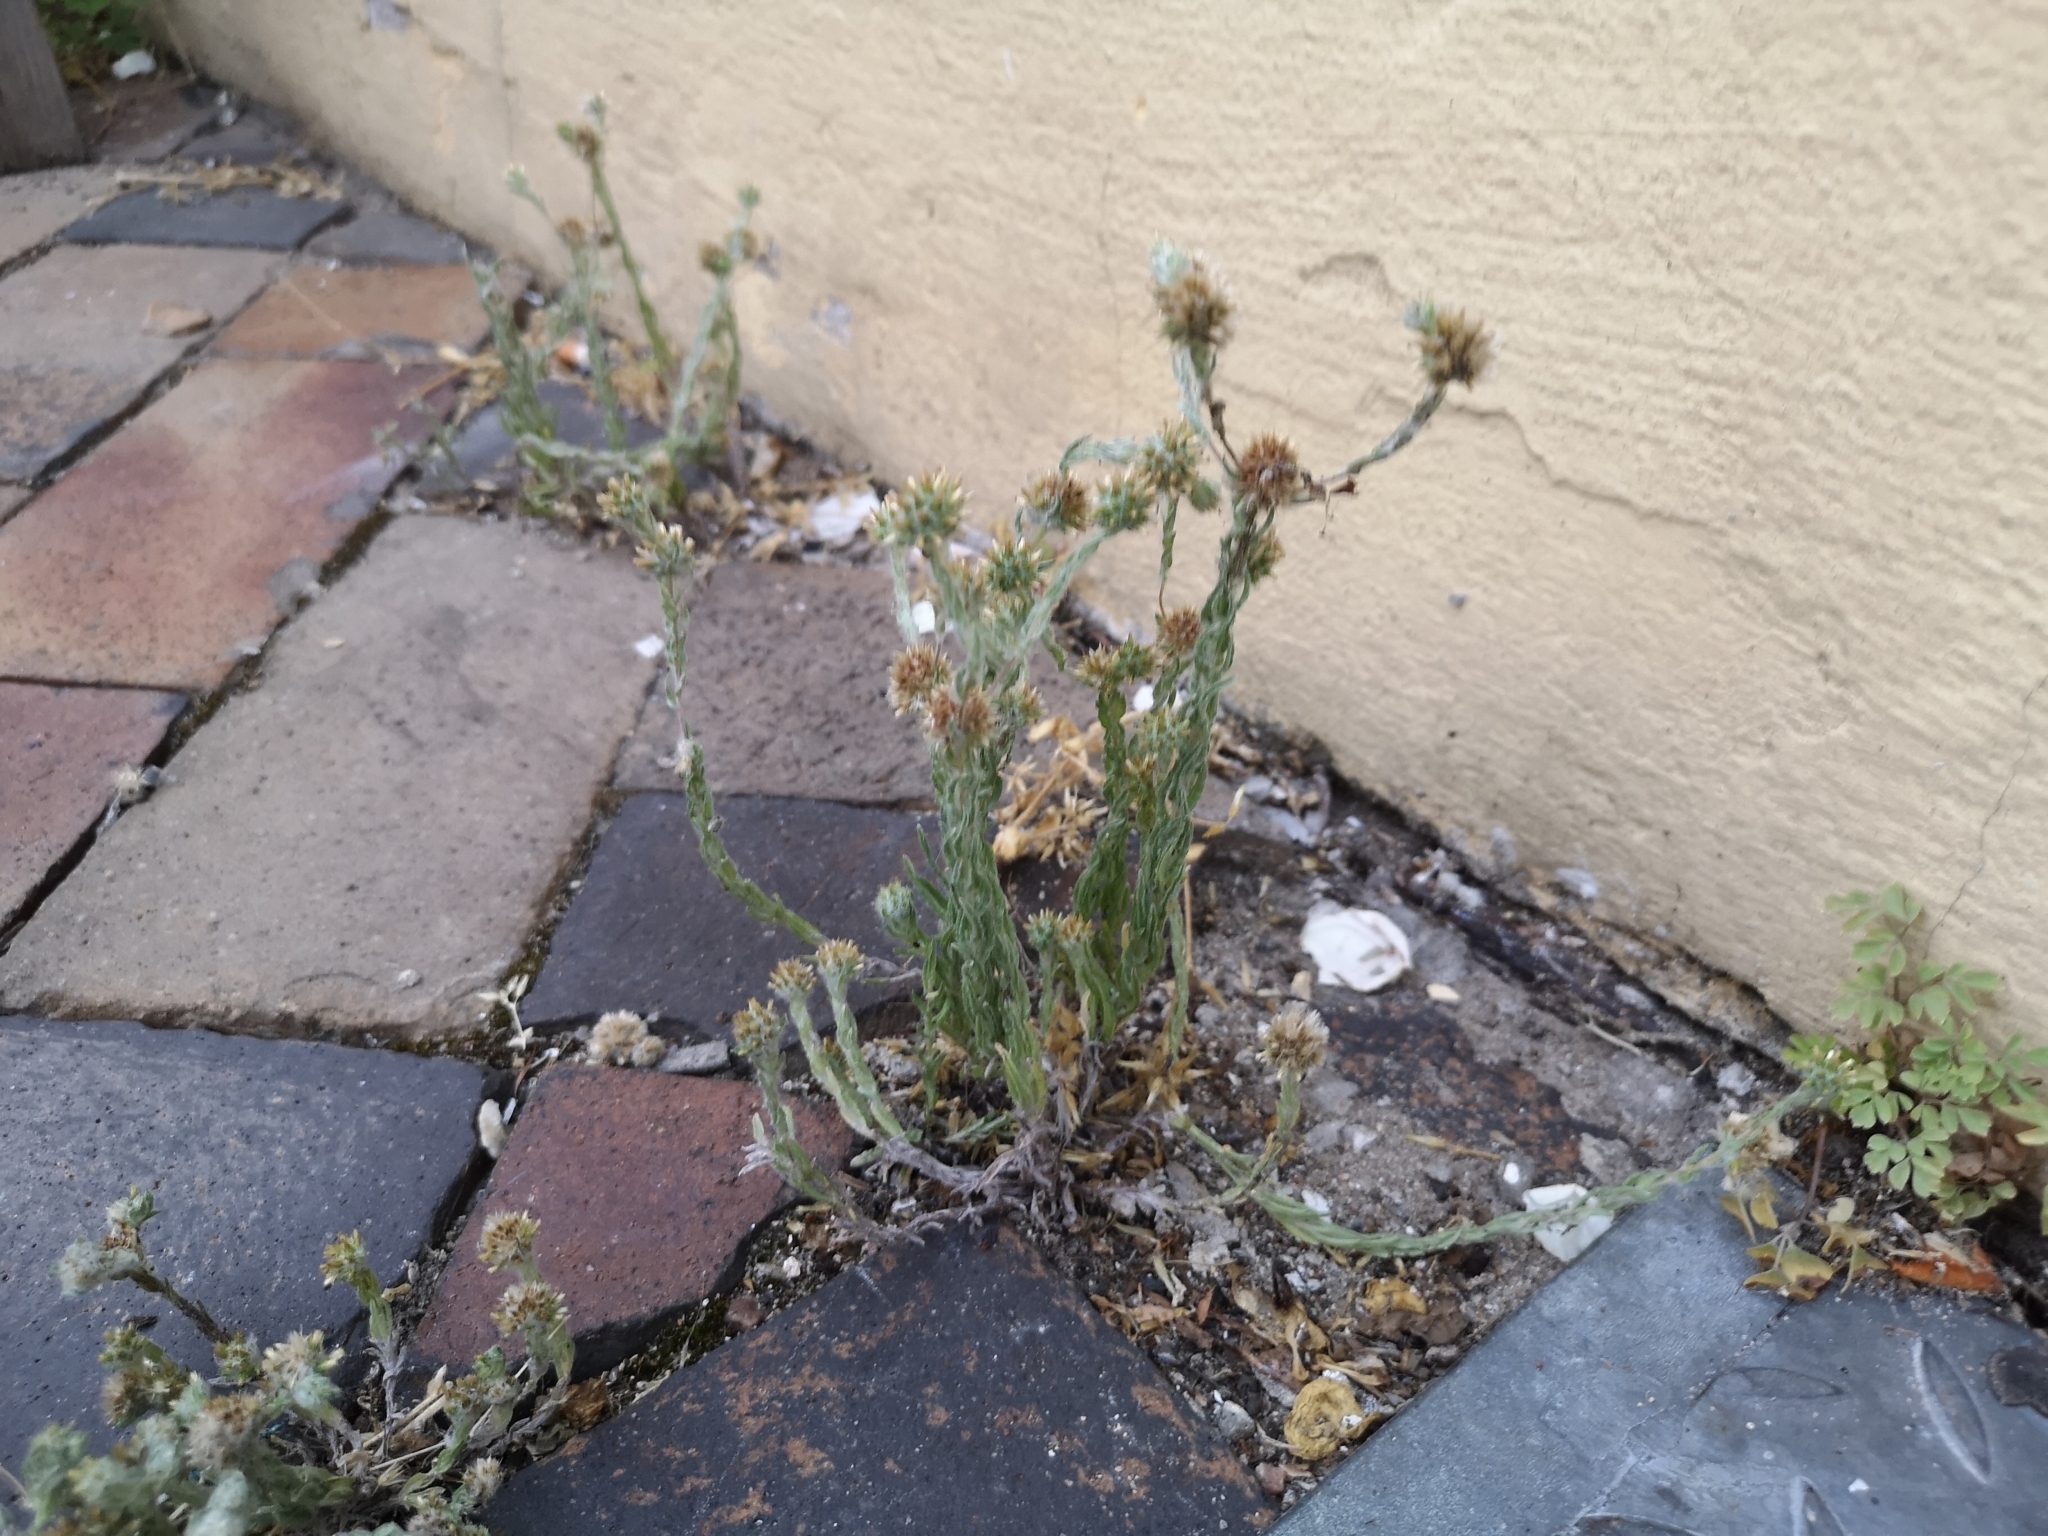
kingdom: Plantae
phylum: Tracheophyta
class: Magnoliopsida
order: Asterales
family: Asteraceae
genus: Filago
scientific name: Filago germanica
